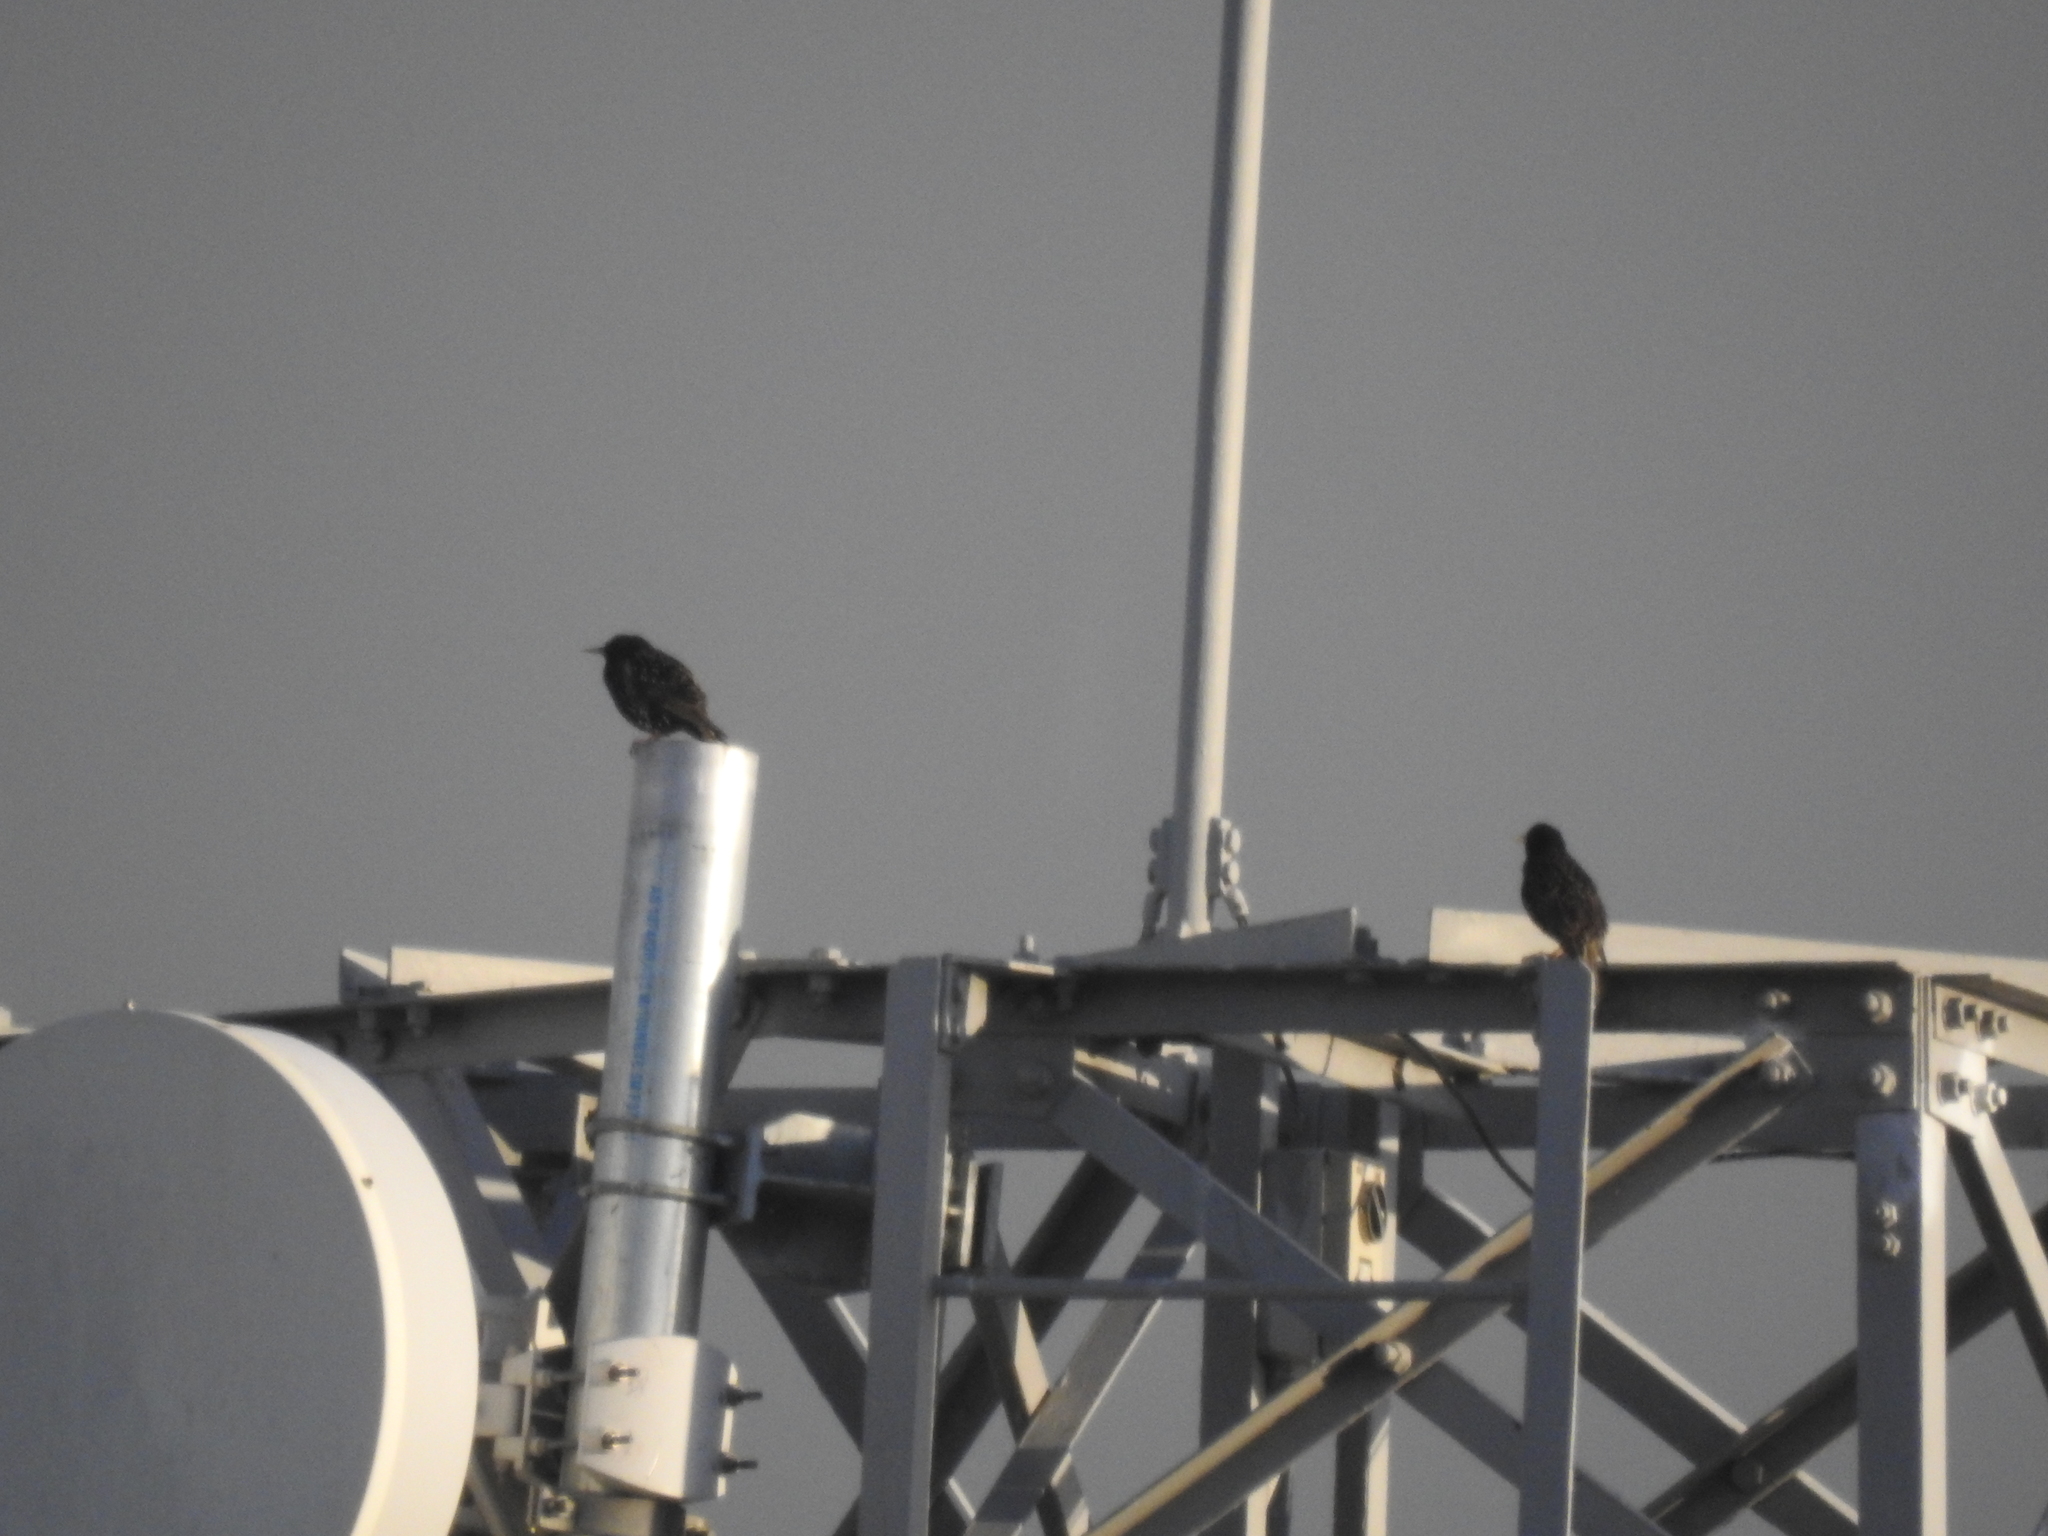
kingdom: Animalia
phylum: Chordata
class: Aves
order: Passeriformes
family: Sturnidae
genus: Sturnus
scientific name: Sturnus vulgaris
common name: Common starling
